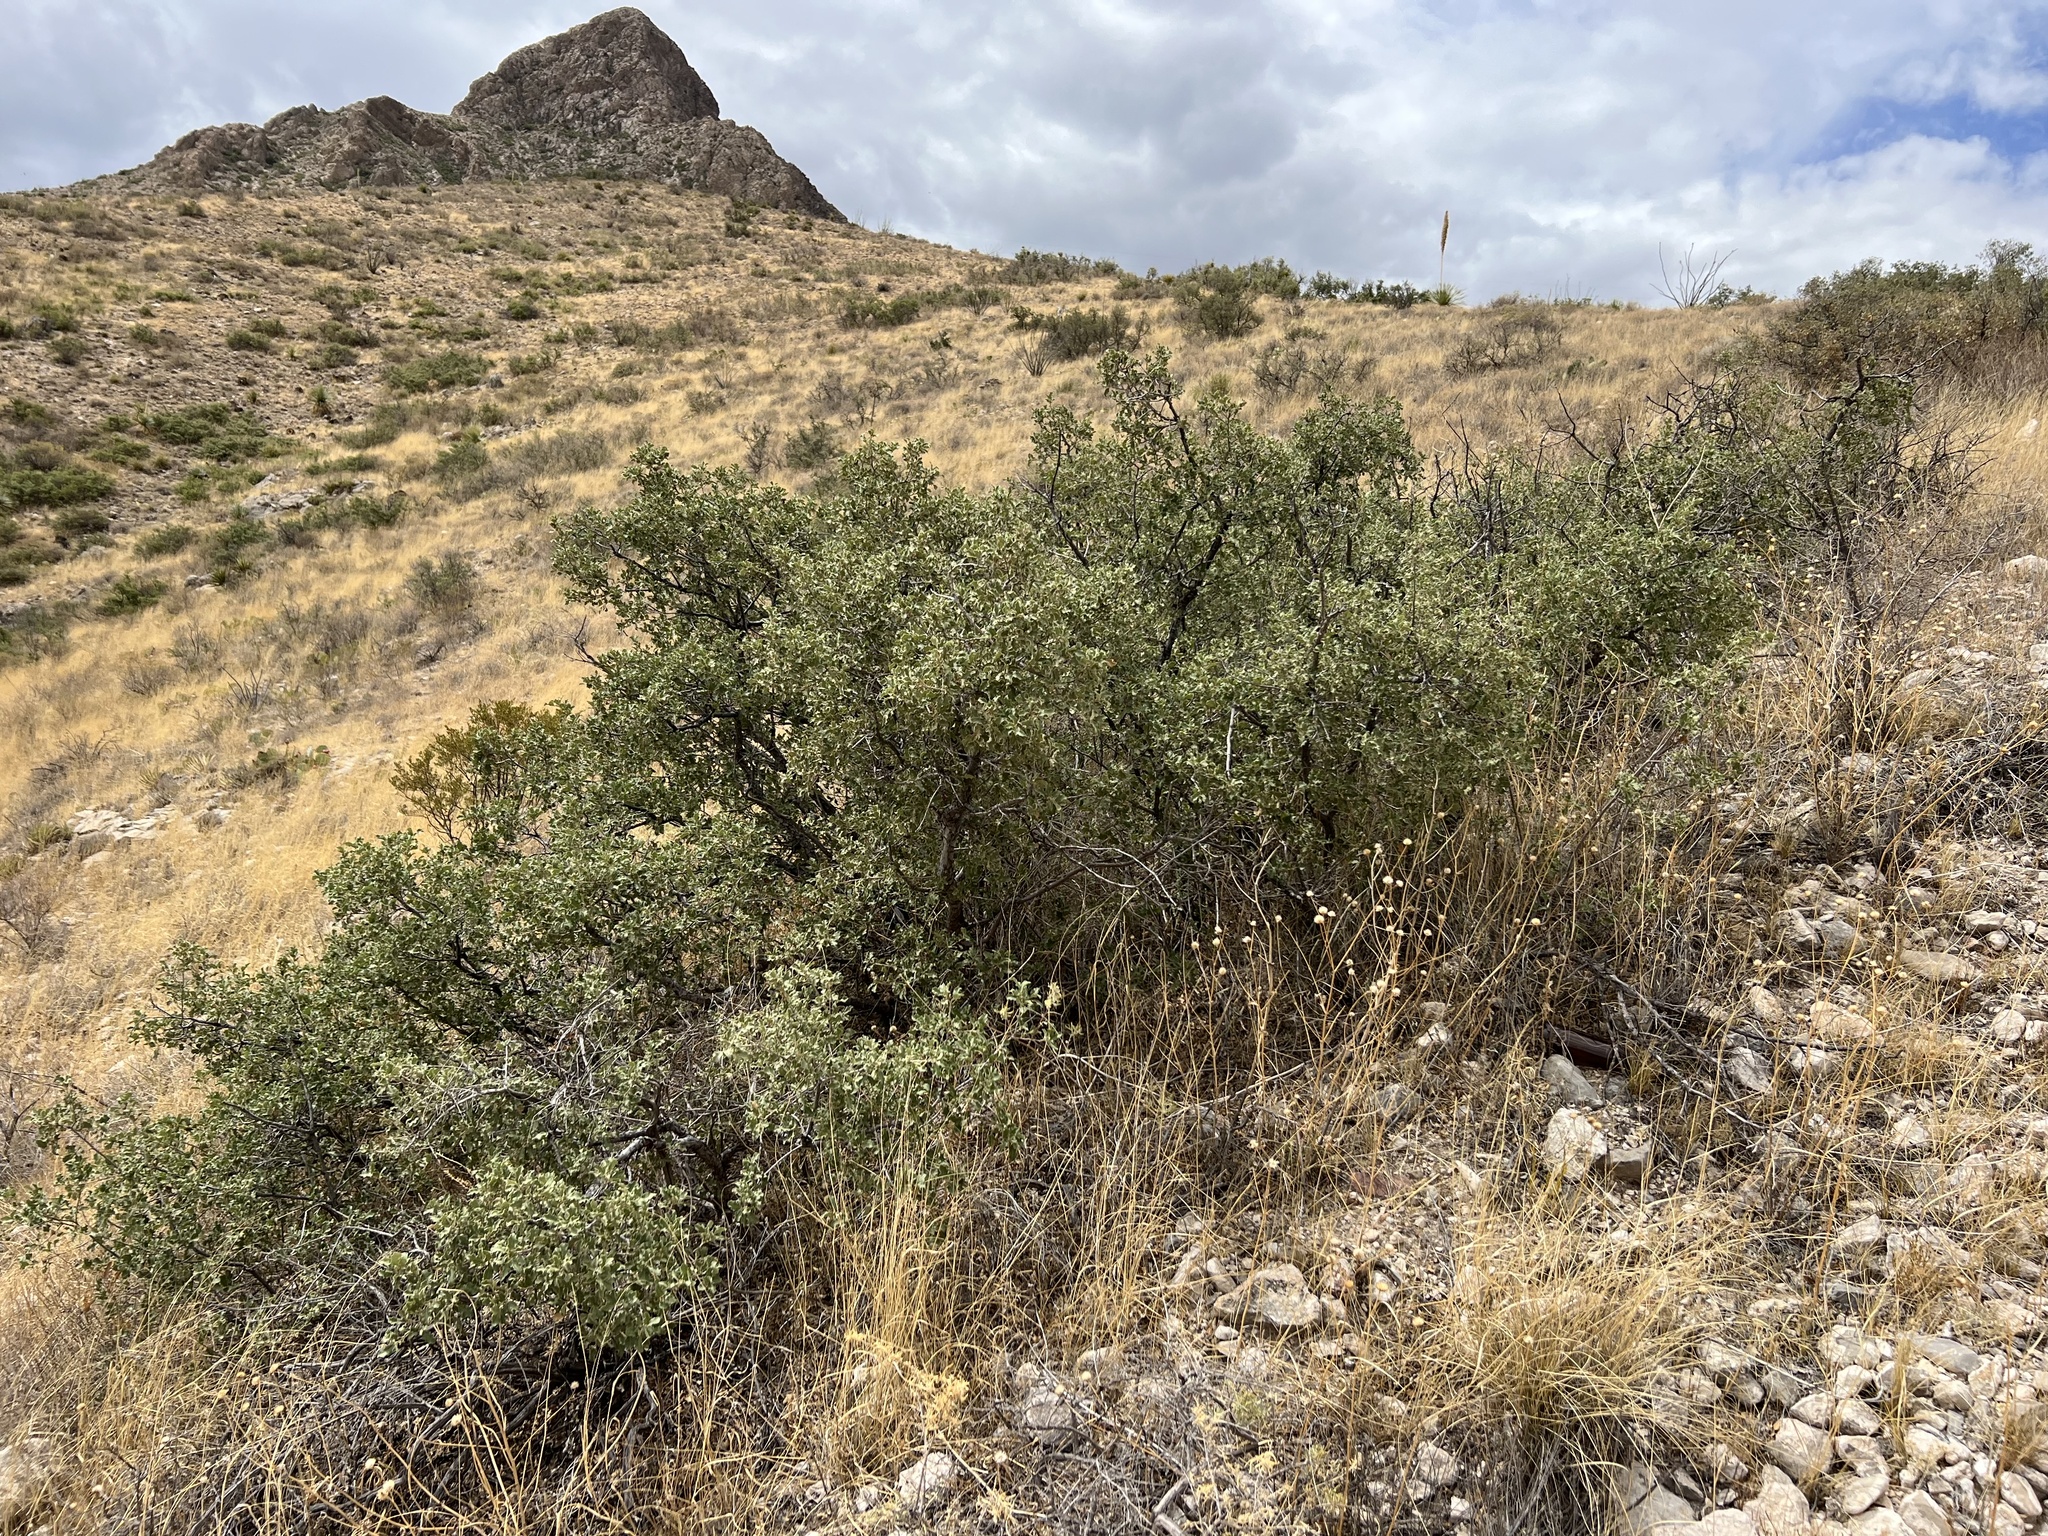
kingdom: Plantae
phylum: Tracheophyta
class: Magnoliopsida
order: Fagales
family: Fagaceae
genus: Quercus
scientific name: Quercus pungens
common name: Pungent oak
